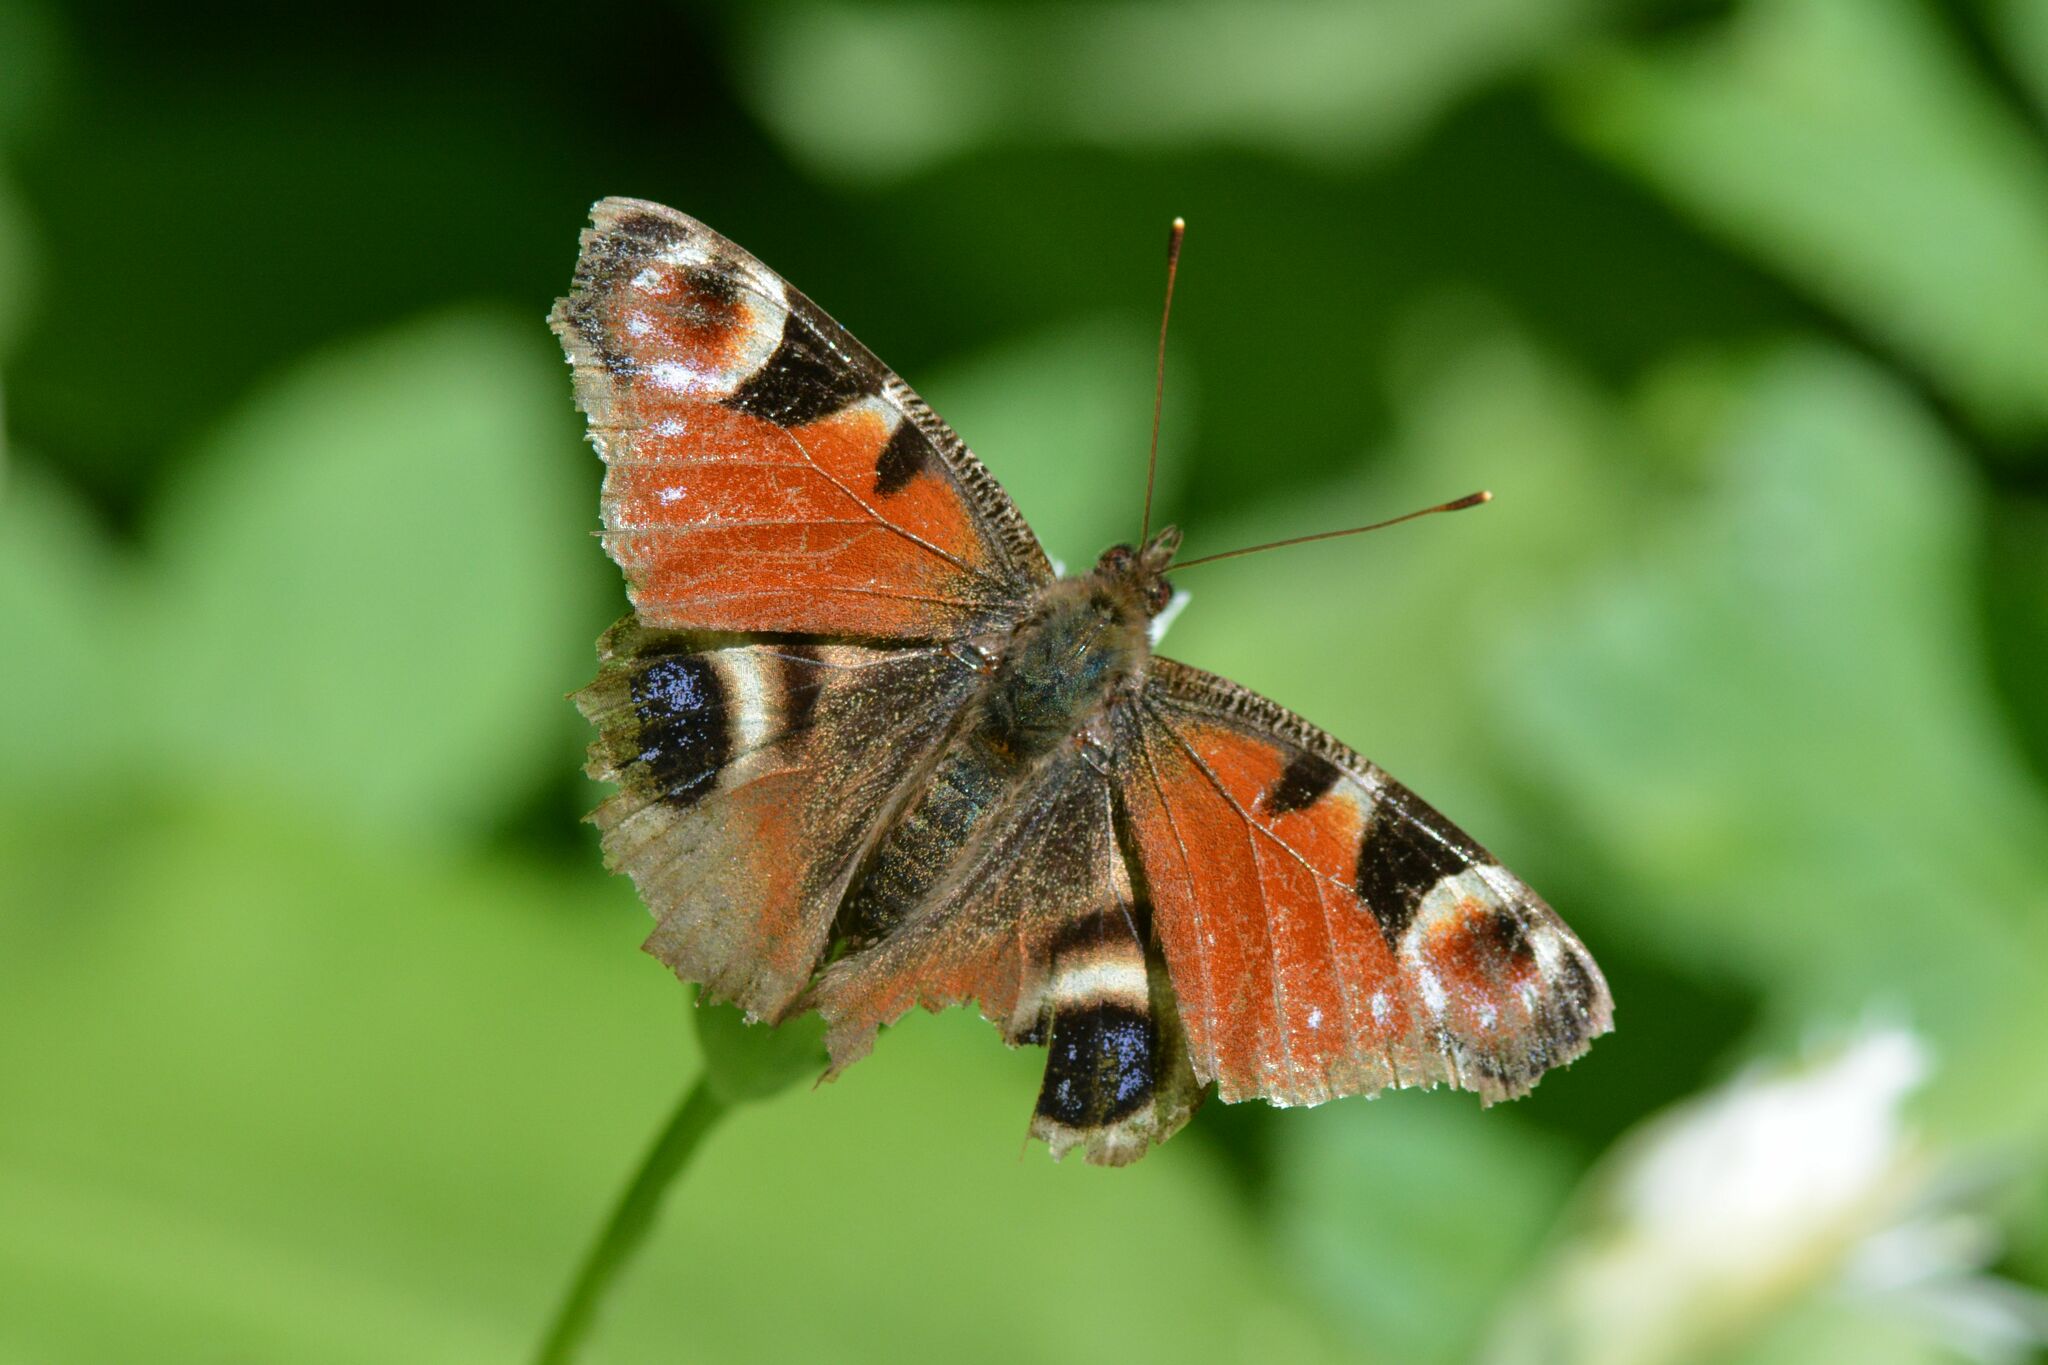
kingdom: Animalia
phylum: Arthropoda
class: Insecta
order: Lepidoptera
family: Nymphalidae
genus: Aglais
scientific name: Aglais io
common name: Peacock
